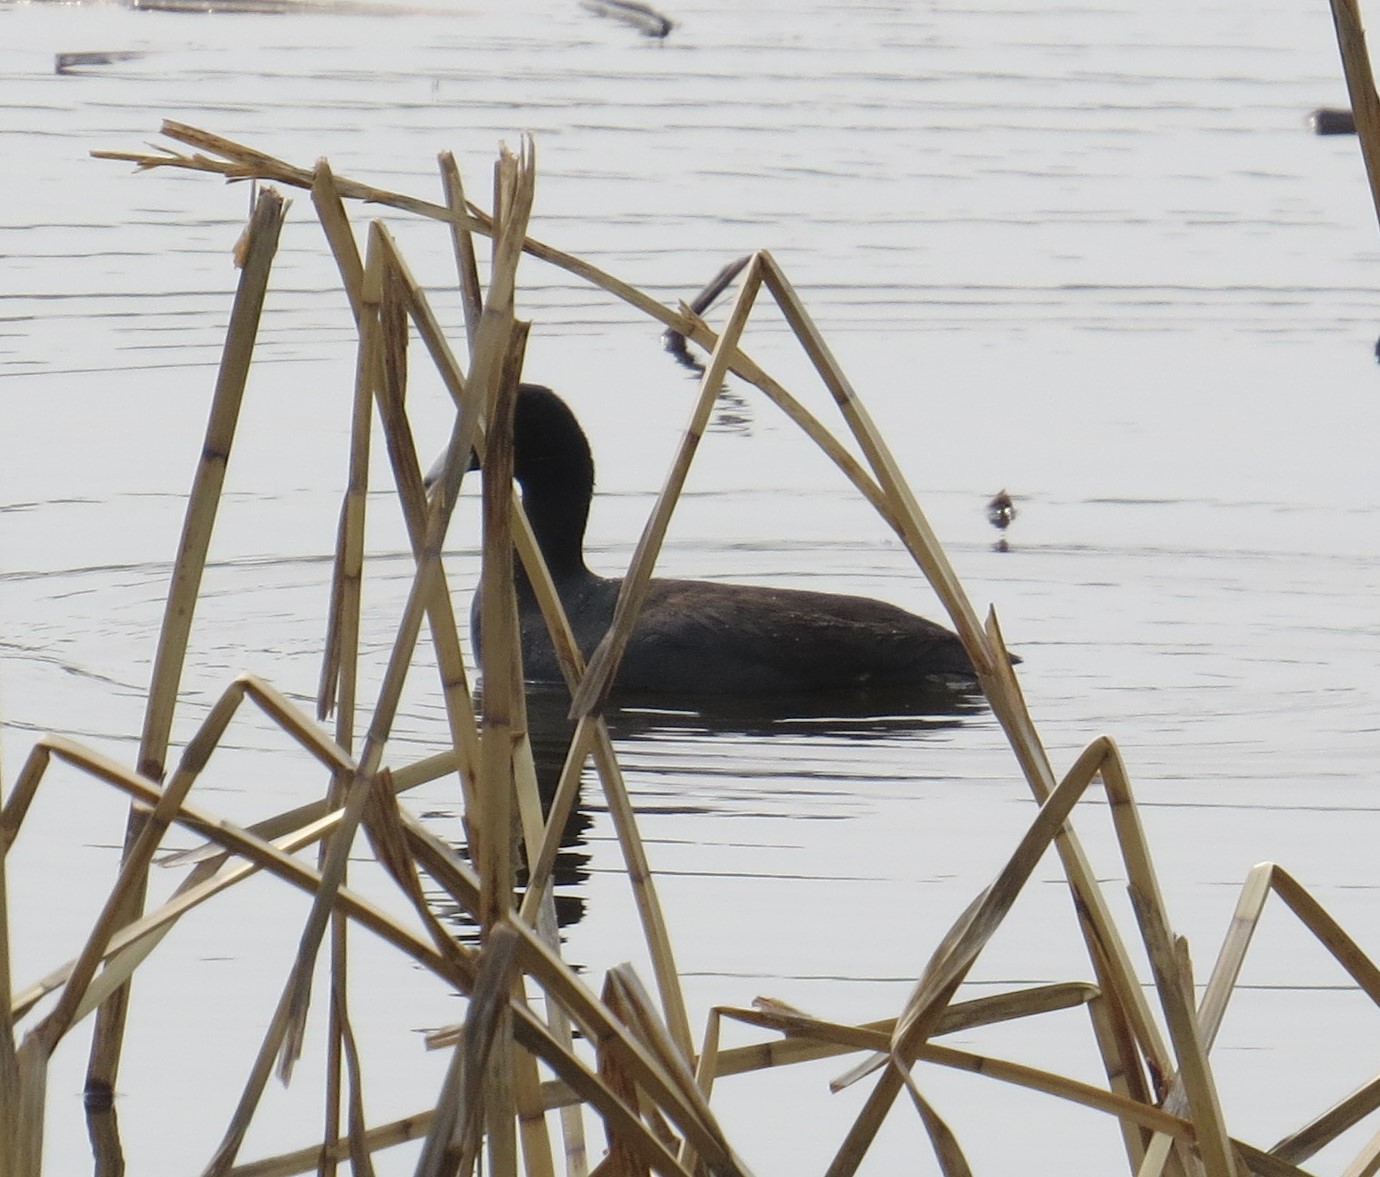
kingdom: Animalia
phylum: Chordata
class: Aves
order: Gruiformes
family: Rallidae
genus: Fulica
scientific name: Fulica americana
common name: American coot
